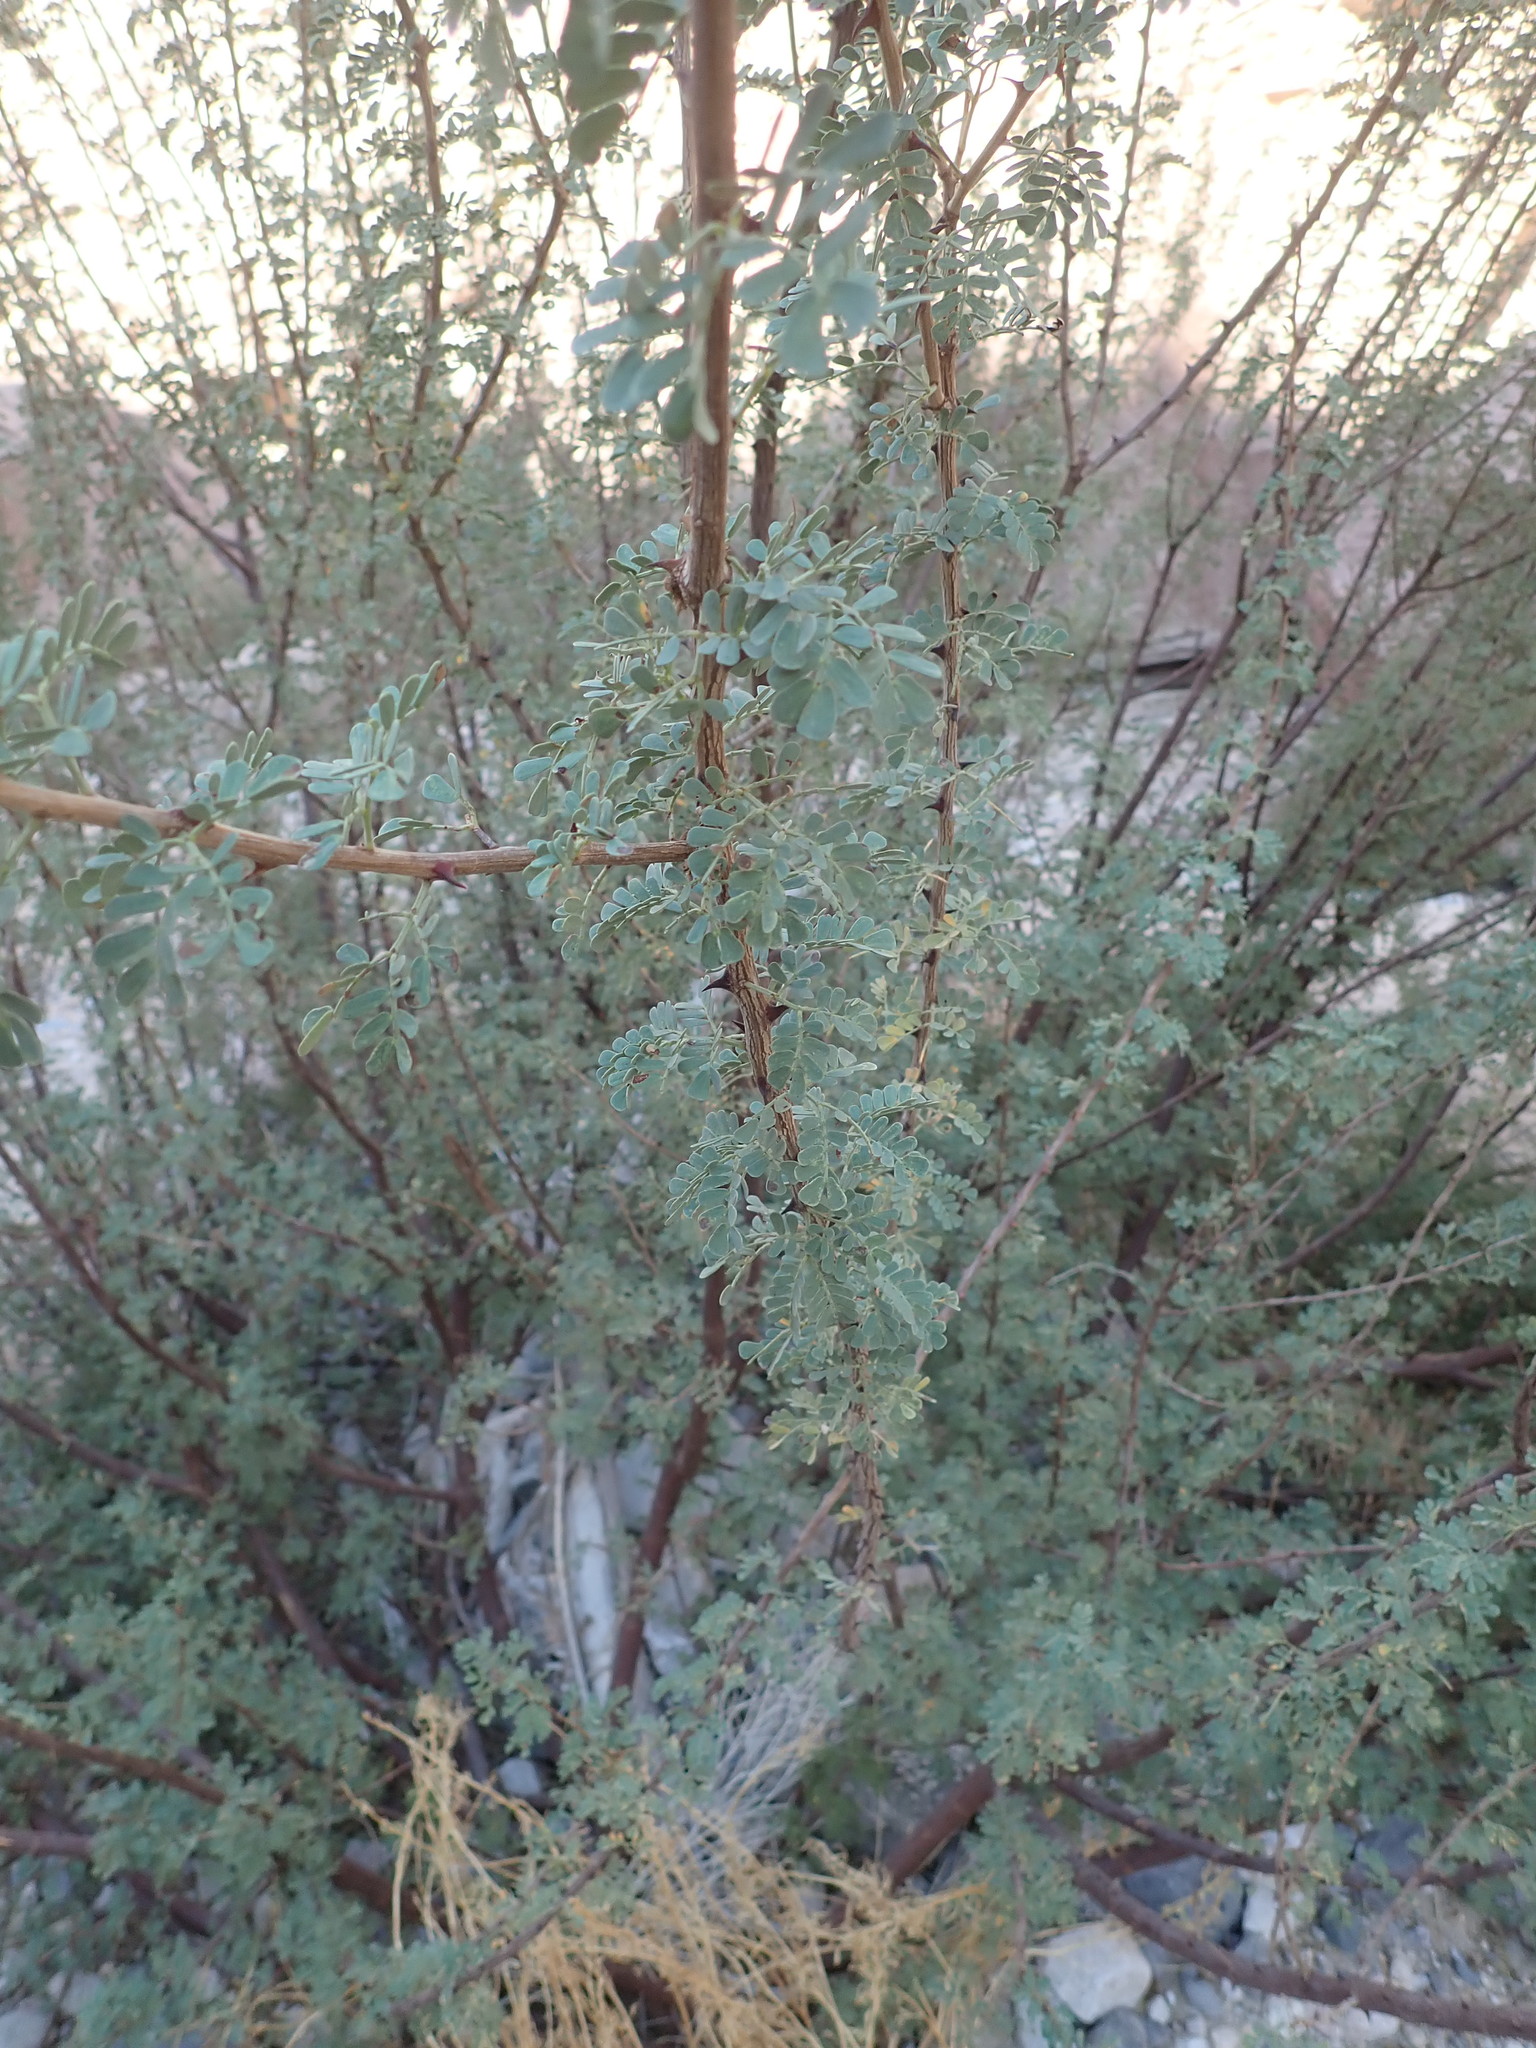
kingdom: Plantae
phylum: Tracheophyta
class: Magnoliopsida
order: Fabales
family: Fabaceae
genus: Senegalia
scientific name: Senegalia greggii
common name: Texas-mimosa
